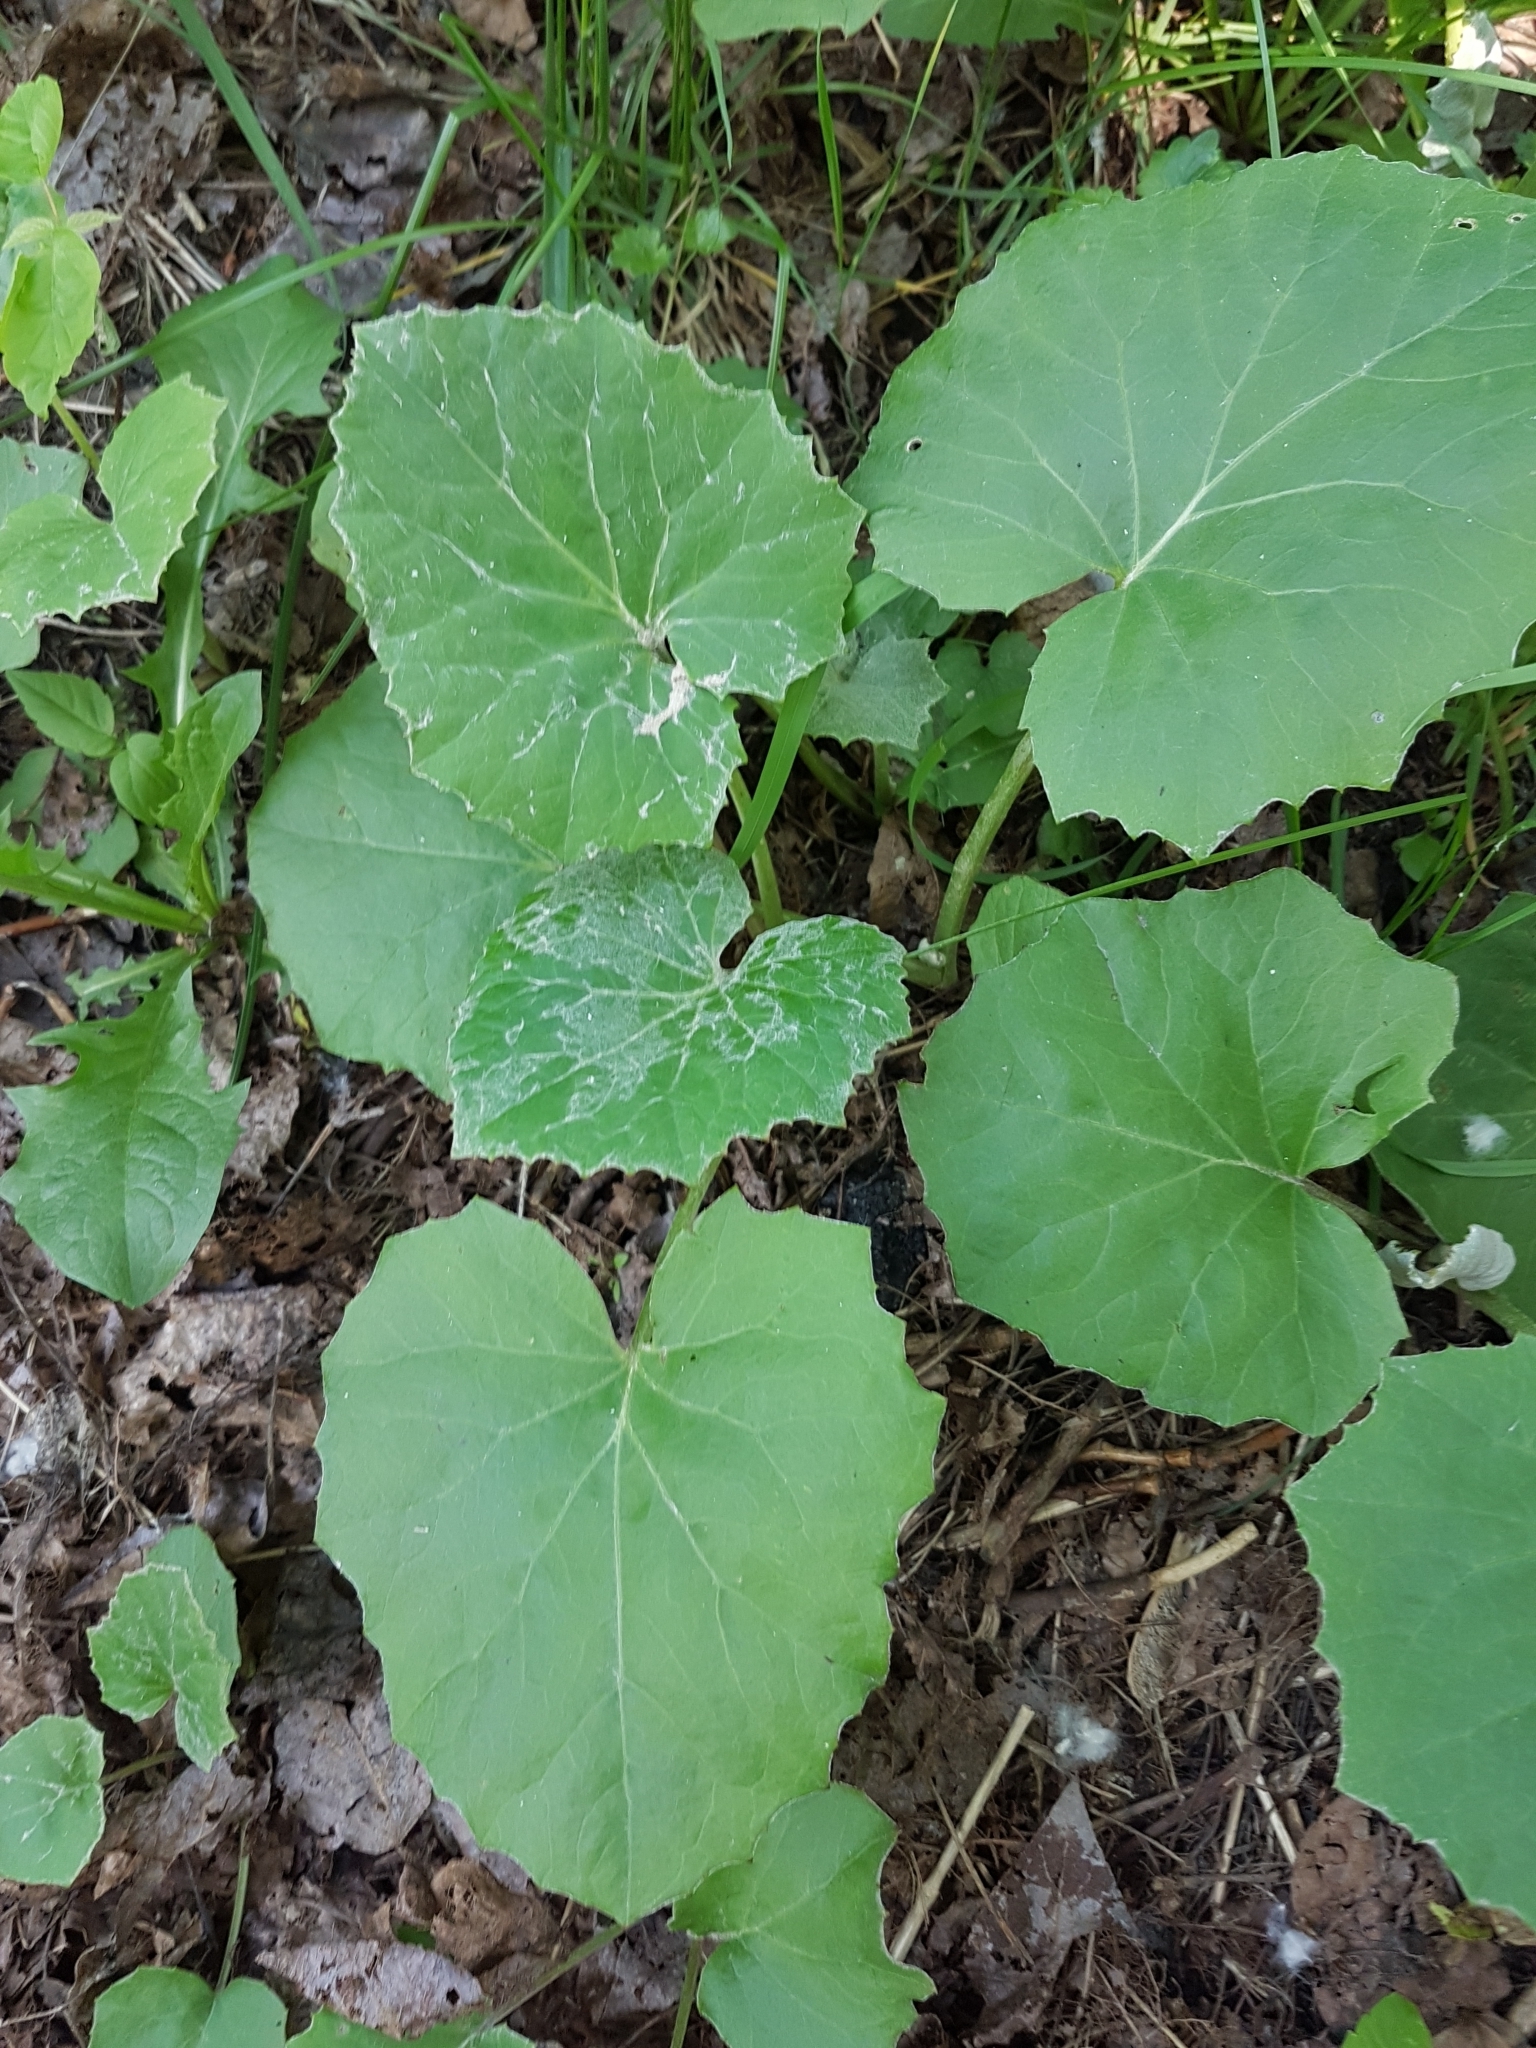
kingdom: Plantae
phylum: Tracheophyta
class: Magnoliopsida
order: Asterales
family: Asteraceae
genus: Tussilago
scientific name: Tussilago farfara
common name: Coltsfoot
